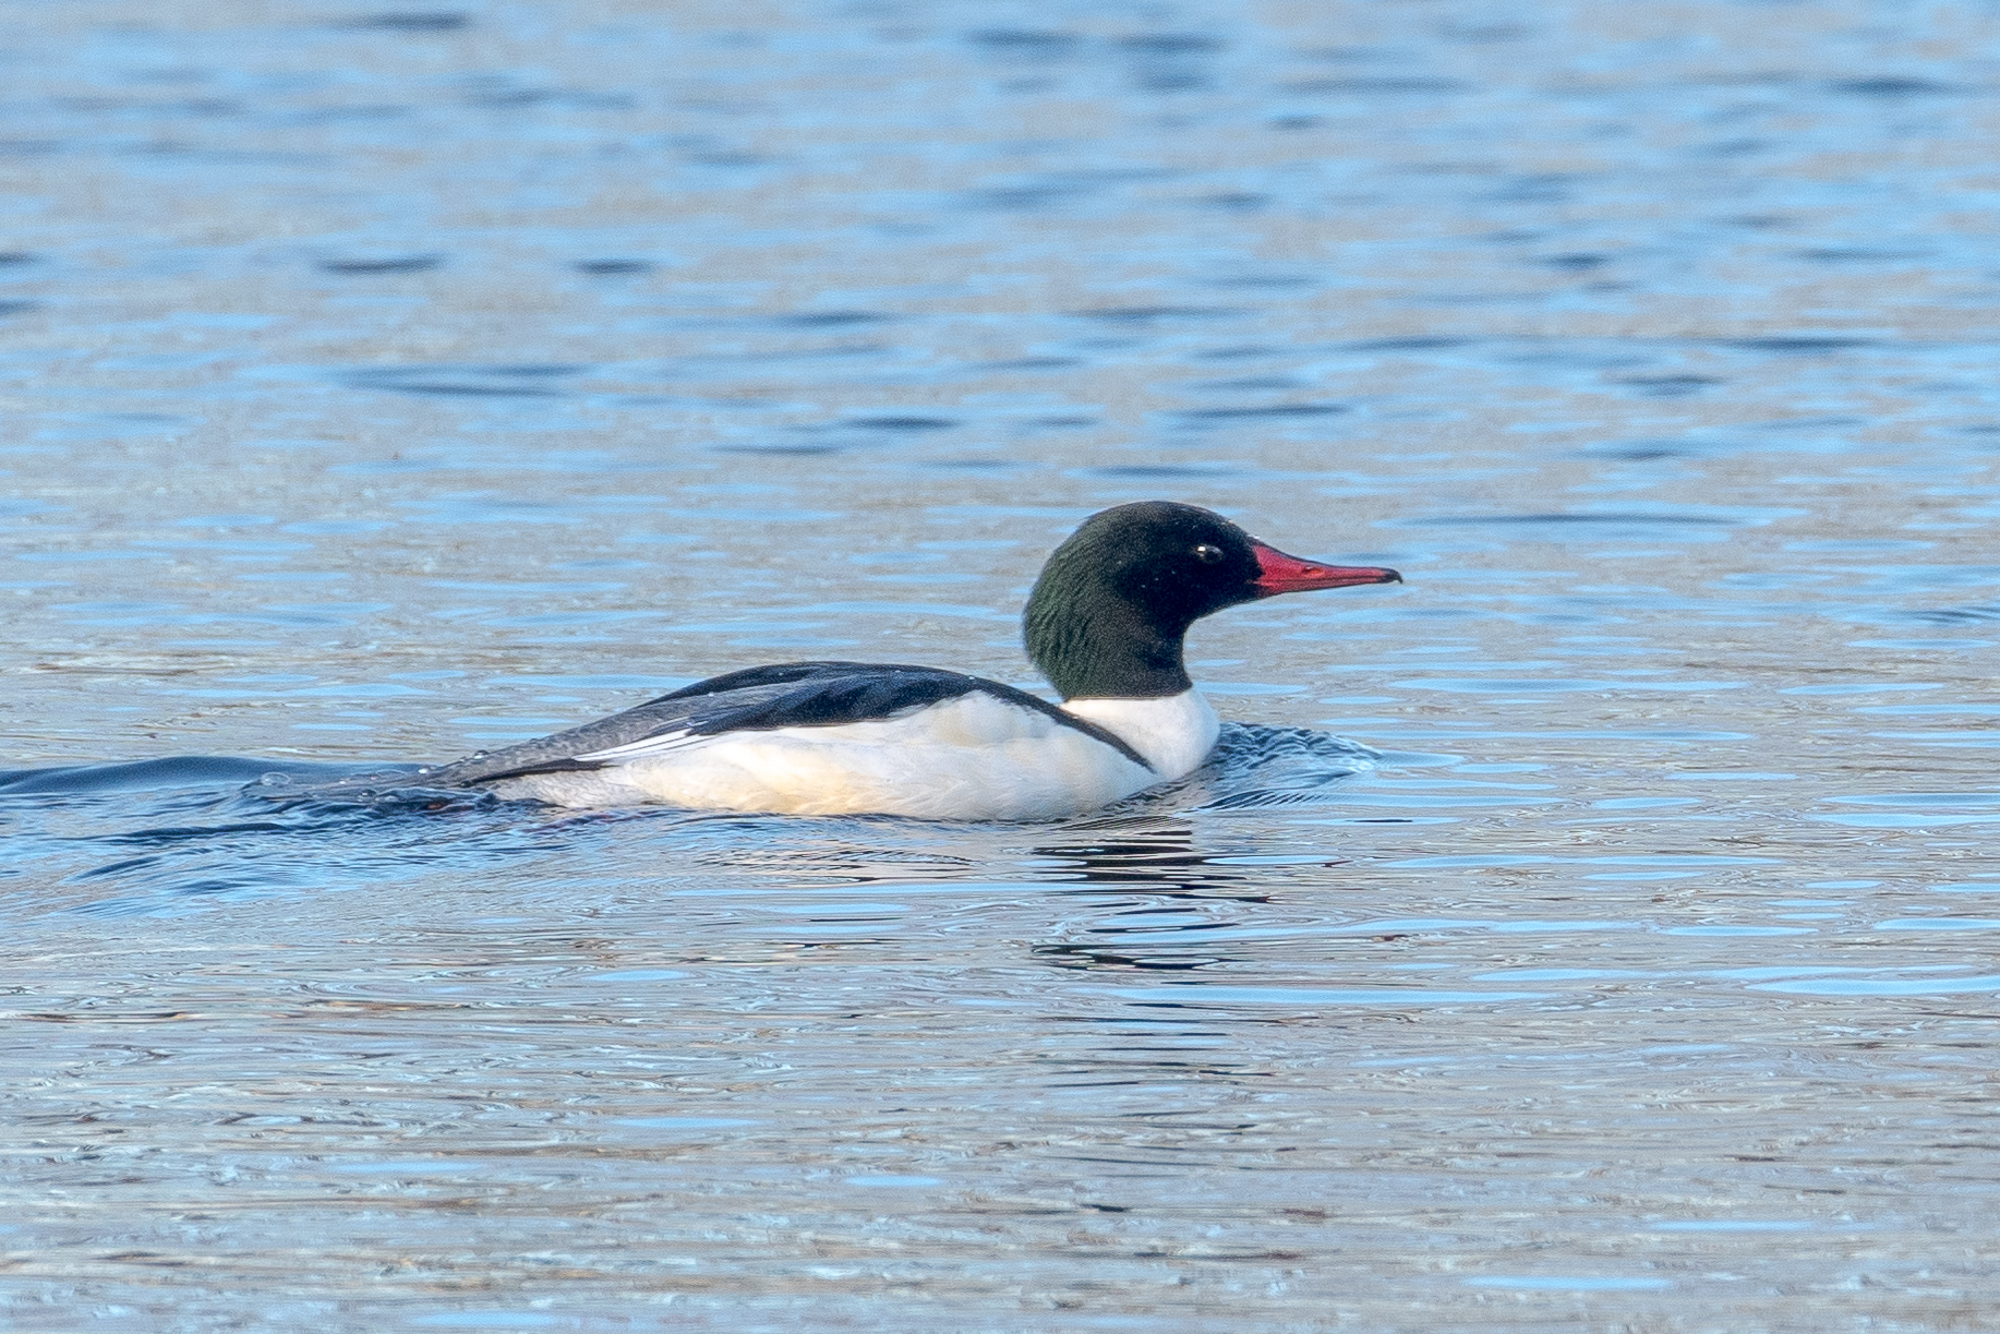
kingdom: Animalia
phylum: Chordata
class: Aves
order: Anseriformes
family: Anatidae
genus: Mergus
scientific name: Mergus merganser
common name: Common merganser
